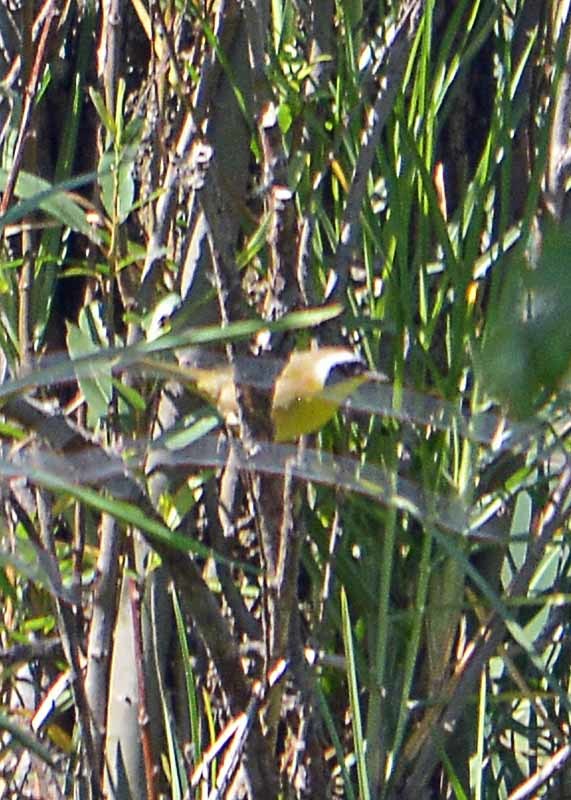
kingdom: Animalia
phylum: Chordata
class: Aves
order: Passeriformes
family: Parulidae
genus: Geothlypis
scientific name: Geothlypis trichas
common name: Common yellowthroat
